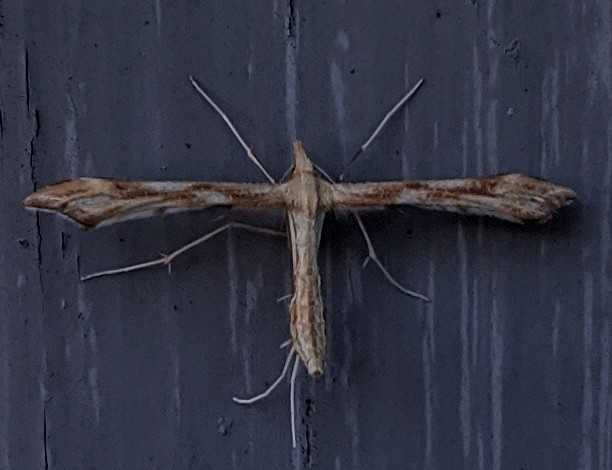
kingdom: Animalia
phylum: Arthropoda
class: Insecta
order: Lepidoptera
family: Pterophoridae
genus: Gillmeria
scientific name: Gillmeria pallidactyla
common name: Yarrow plume
